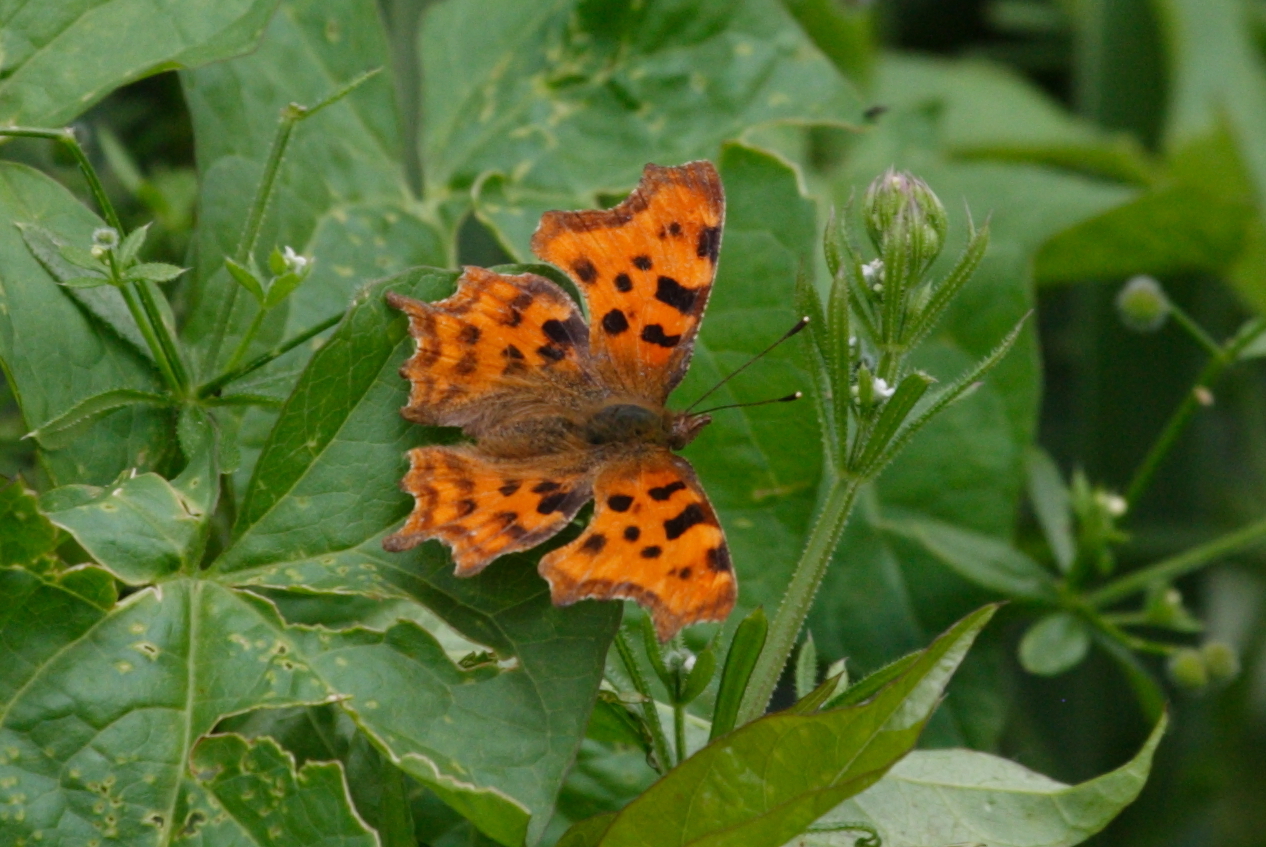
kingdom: Animalia
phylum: Arthropoda
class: Insecta
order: Lepidoptera
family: Nymphalidae
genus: Polygonia
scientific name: Polygonia c-album
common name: Comma
